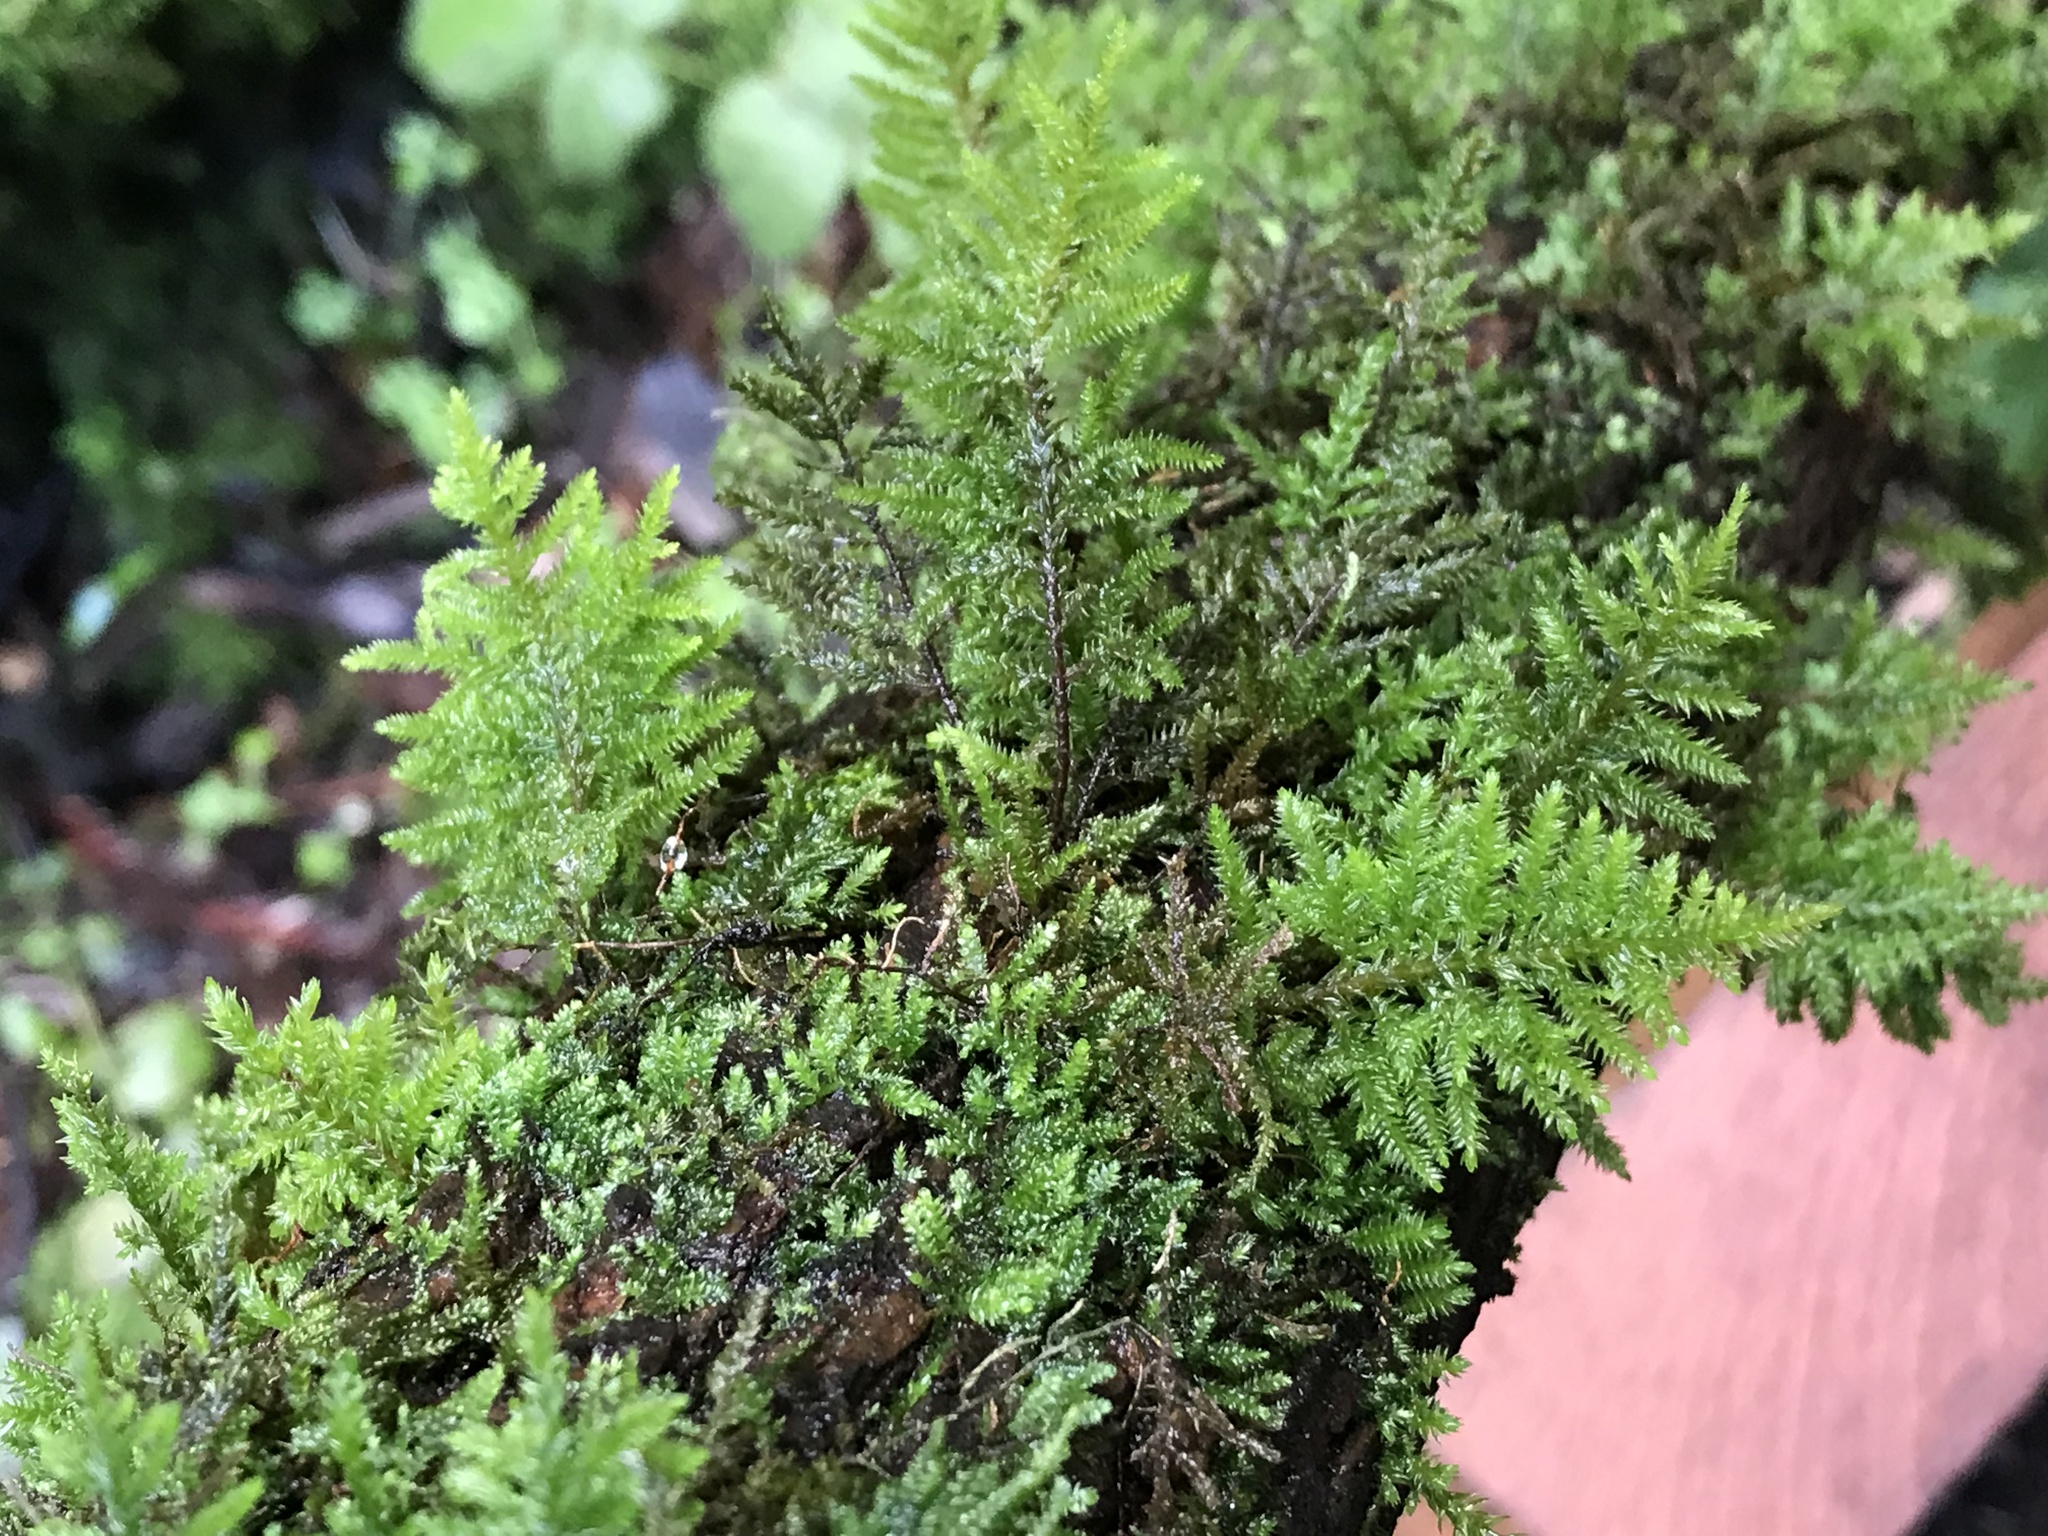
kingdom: Plantae
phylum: Bryophyta
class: Bryopsida
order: Hypnales
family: Cryphaeaceae
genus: Dendroalsia
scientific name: Dendroalsia abietina
